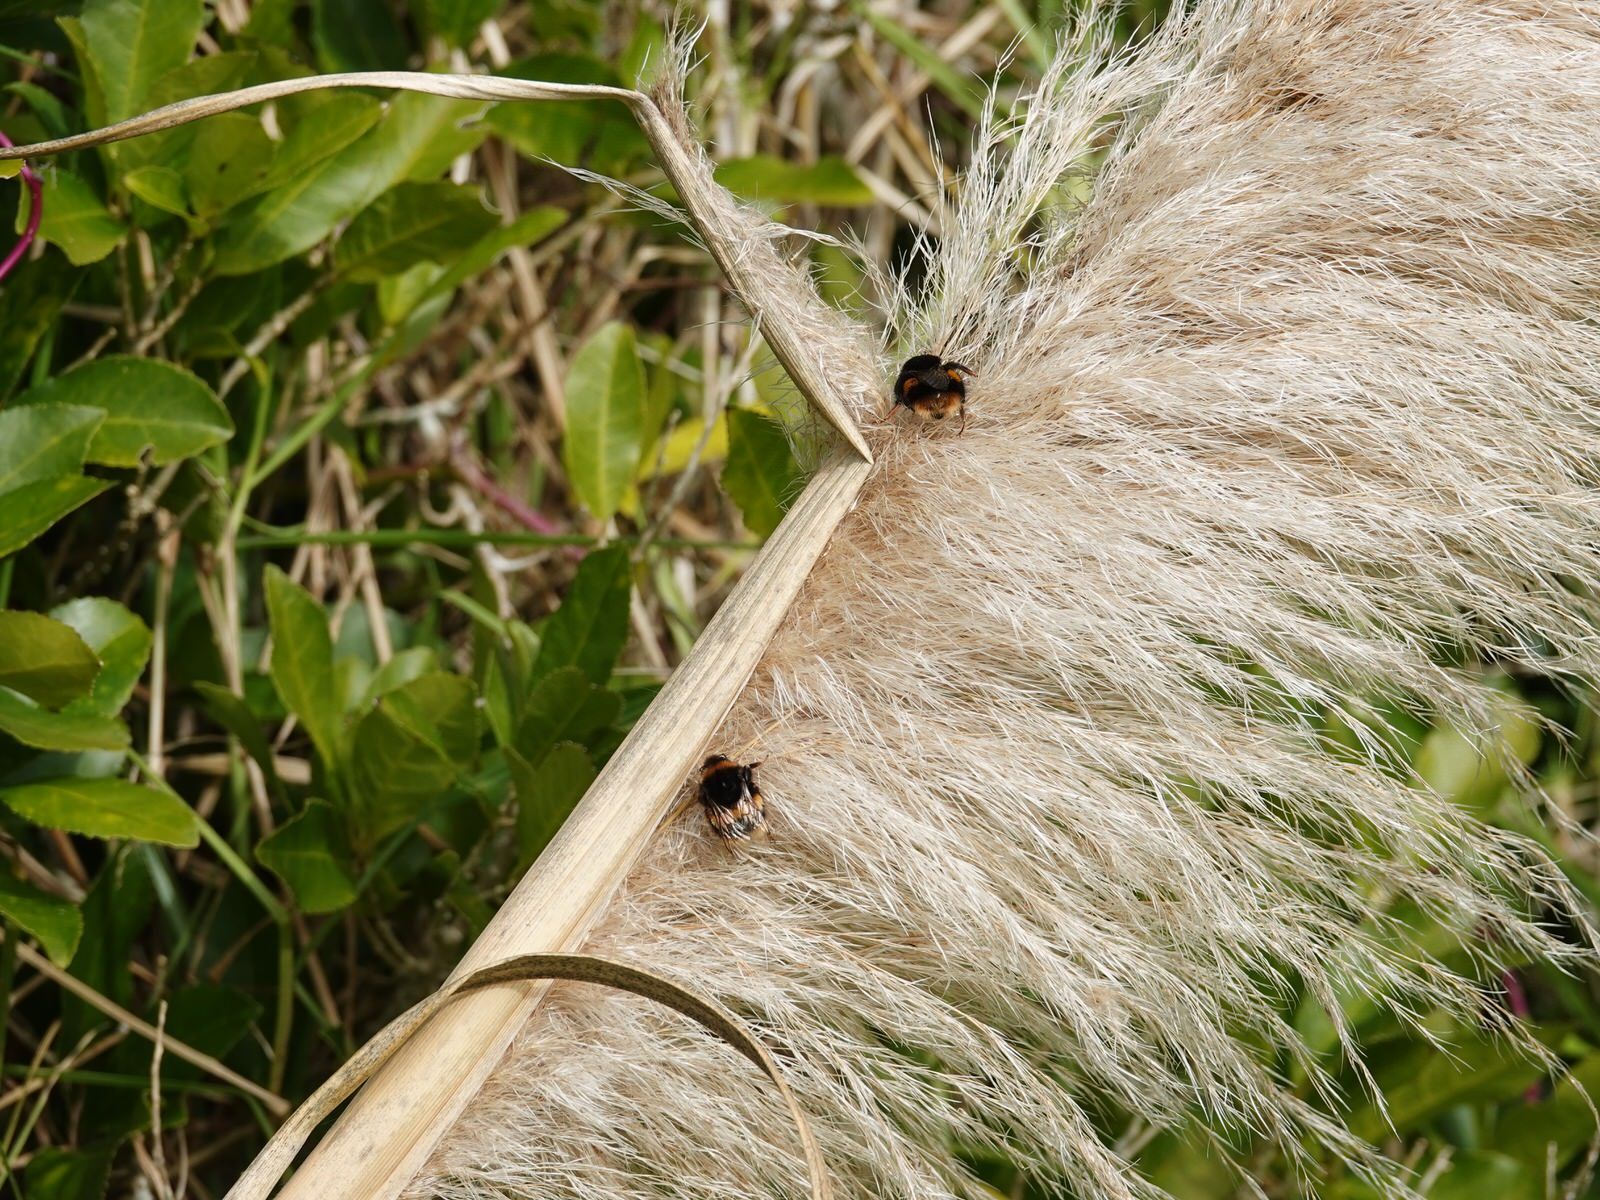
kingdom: Animalia
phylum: Arthropoda
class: Insecta
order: Hymenoptera
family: Apidae
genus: Bombus
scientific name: Bombus terrestris
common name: Buff-tailed bumblebee
